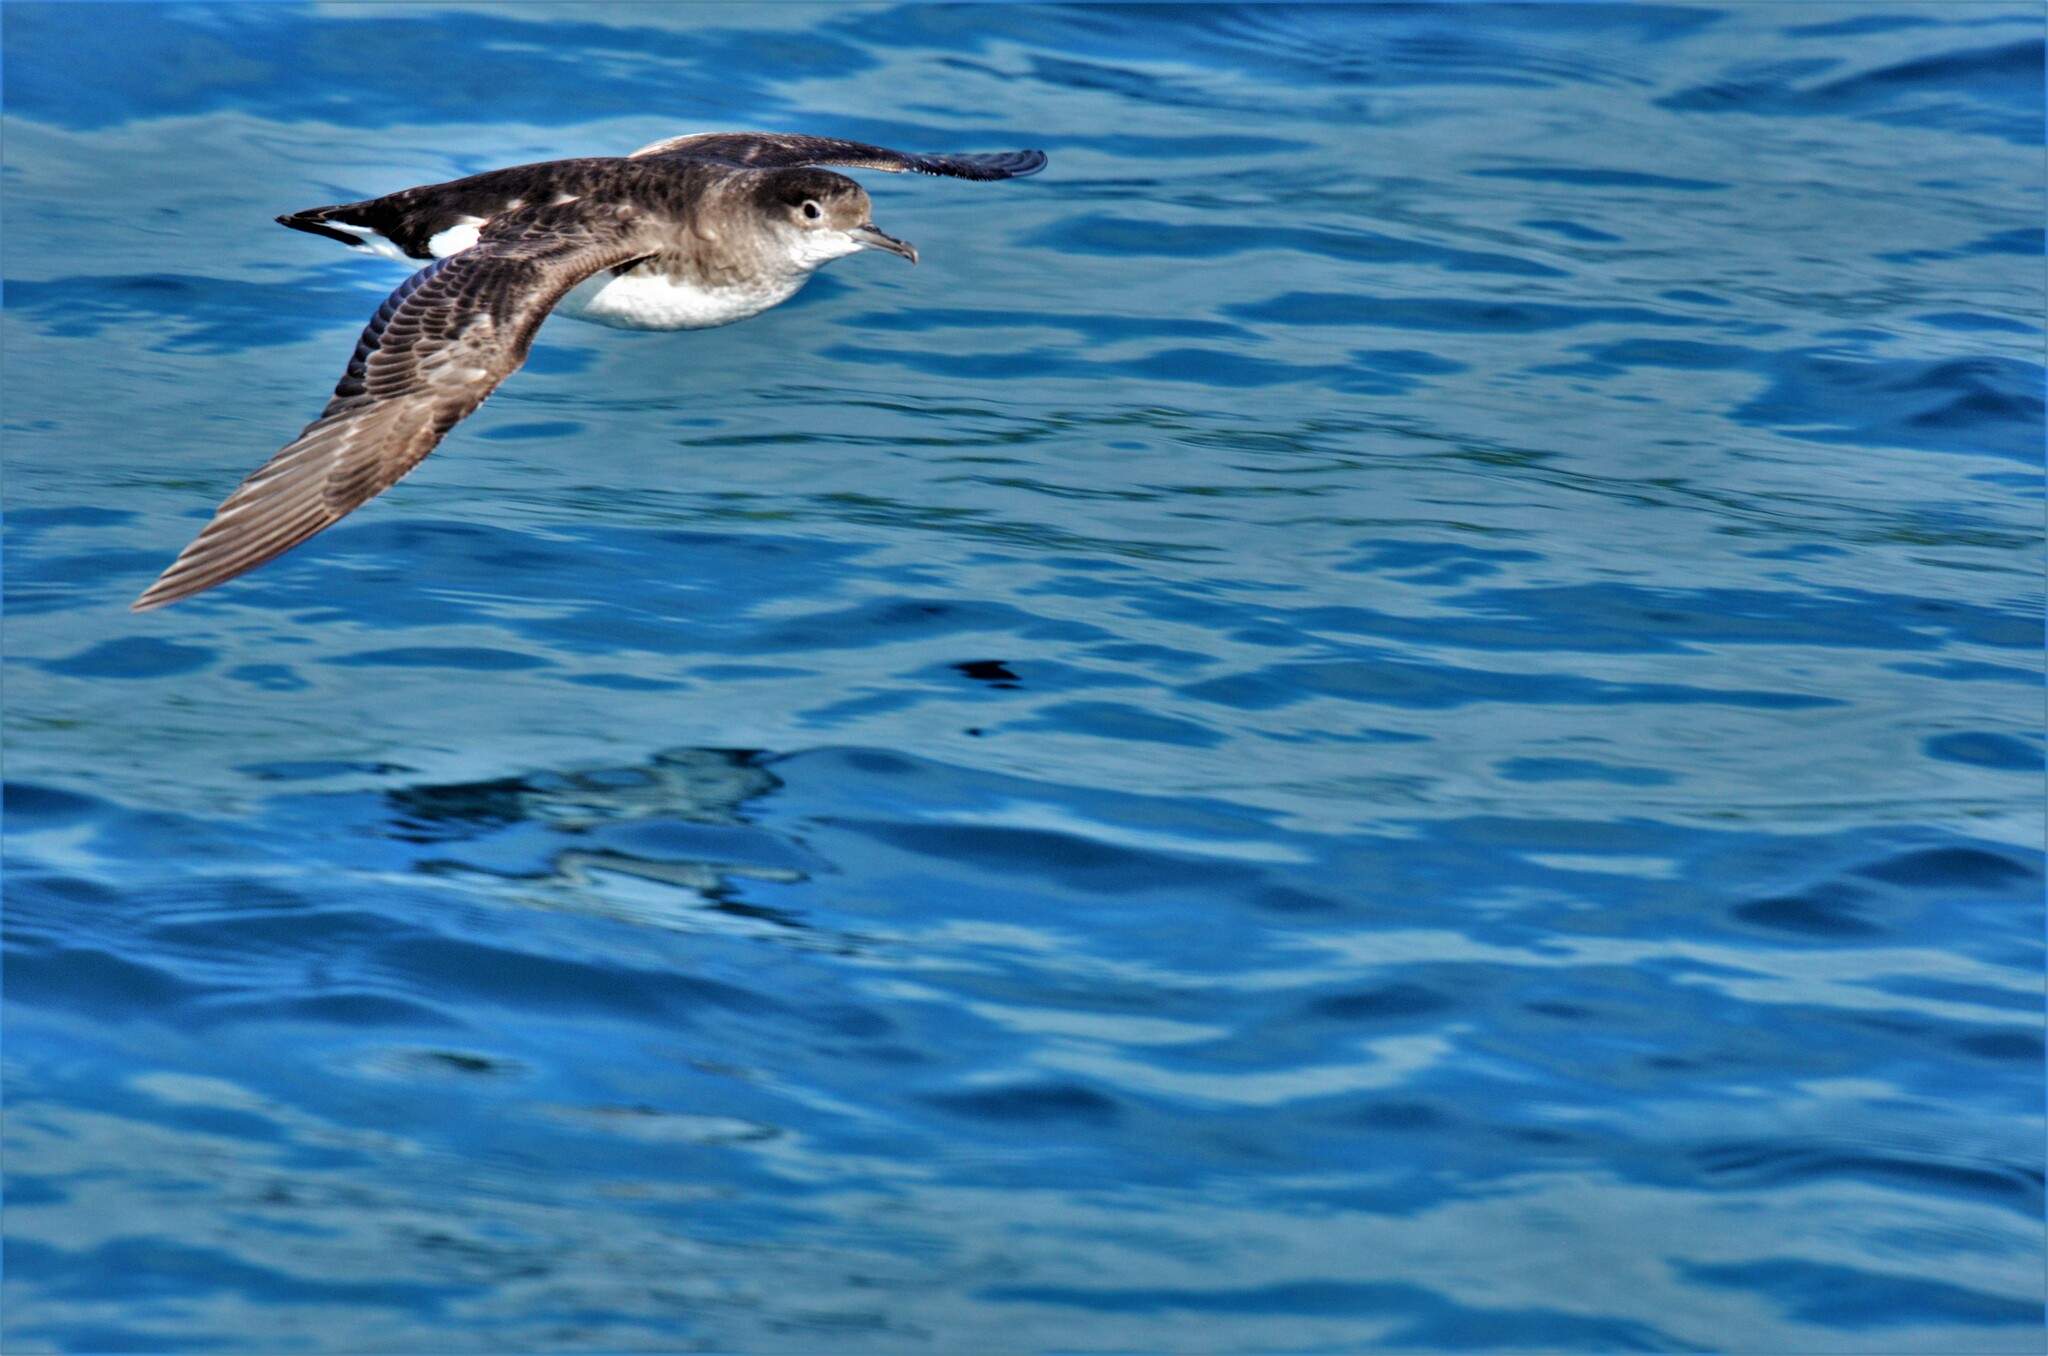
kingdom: Animalia
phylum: Chordata
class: Aves
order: Procellariiformes
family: Procellariidae
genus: Puffinus
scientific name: Puffinus gavia
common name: Fluttering shearwater
